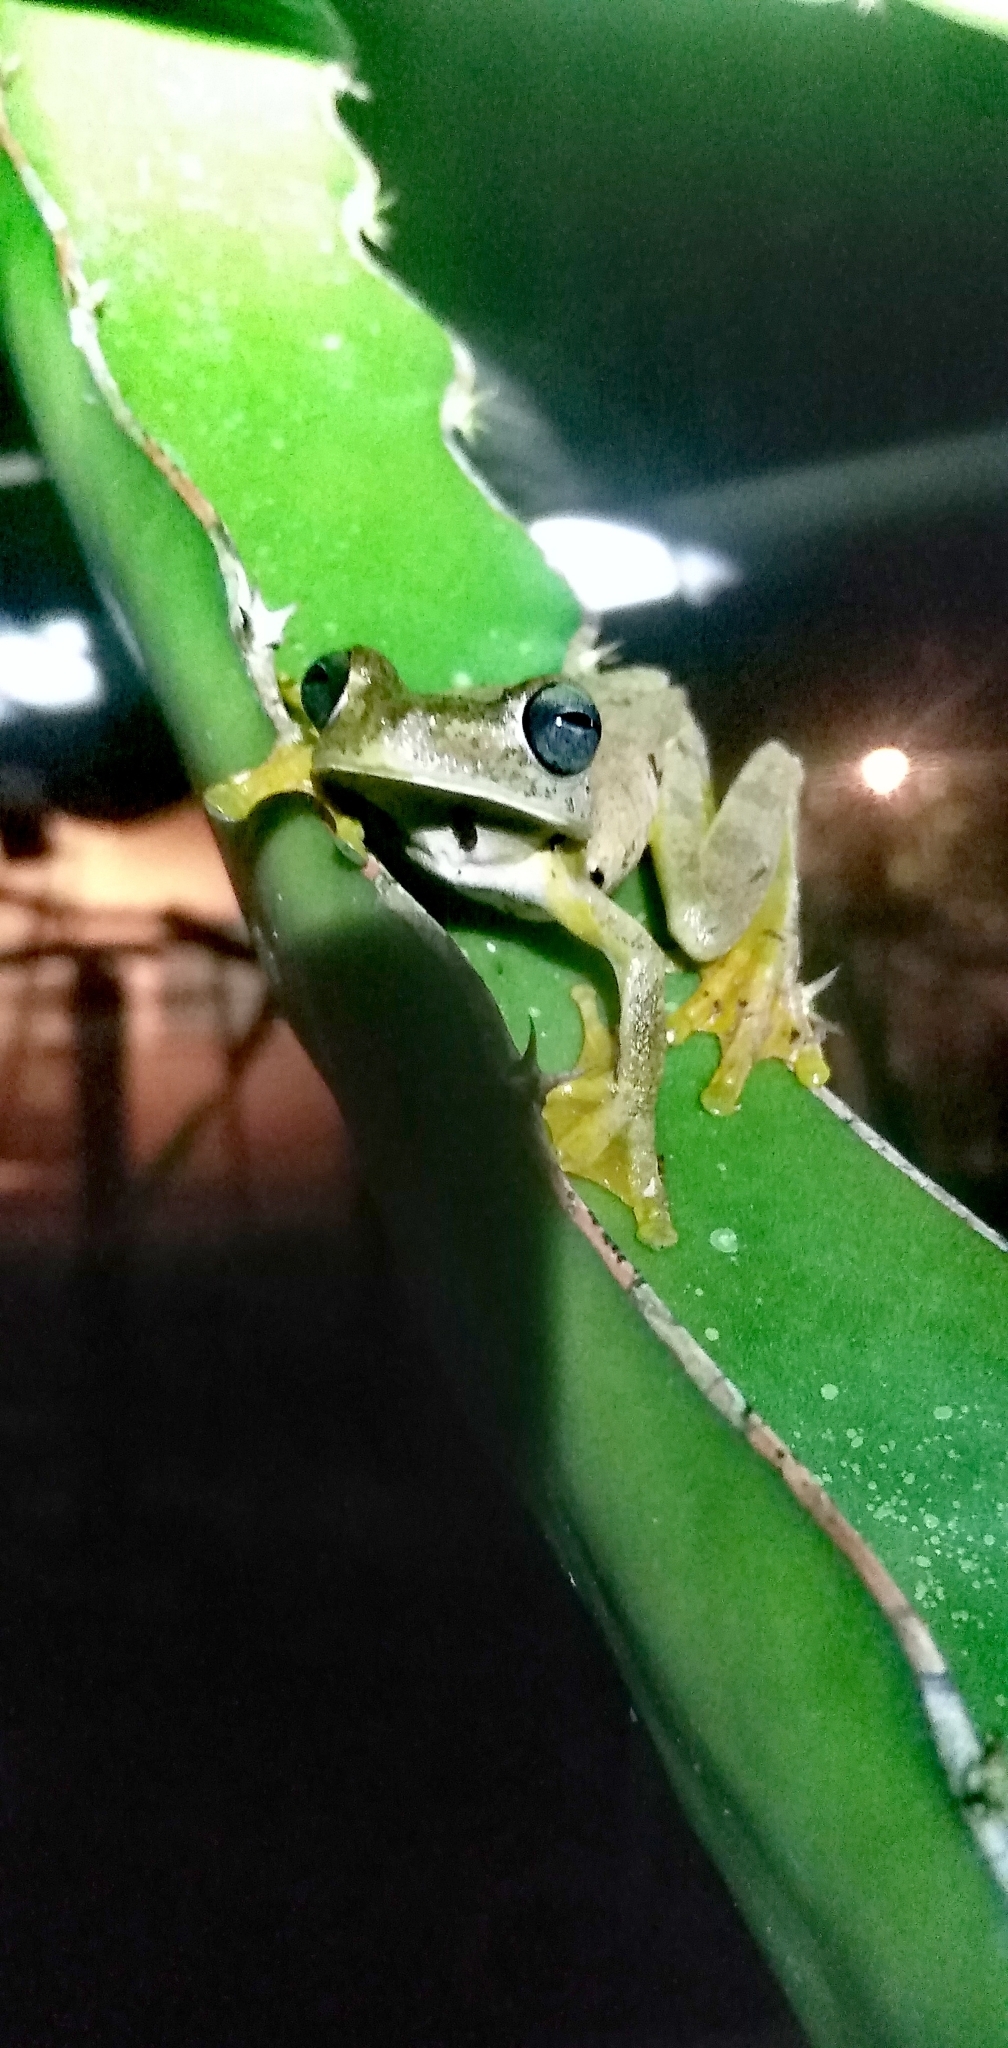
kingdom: Animalia
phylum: Chordata
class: Amphibia
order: Anura
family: Hylidae
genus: Boana
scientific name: Boana rosenbergi
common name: Rosenberg´s gladiator treefrog
